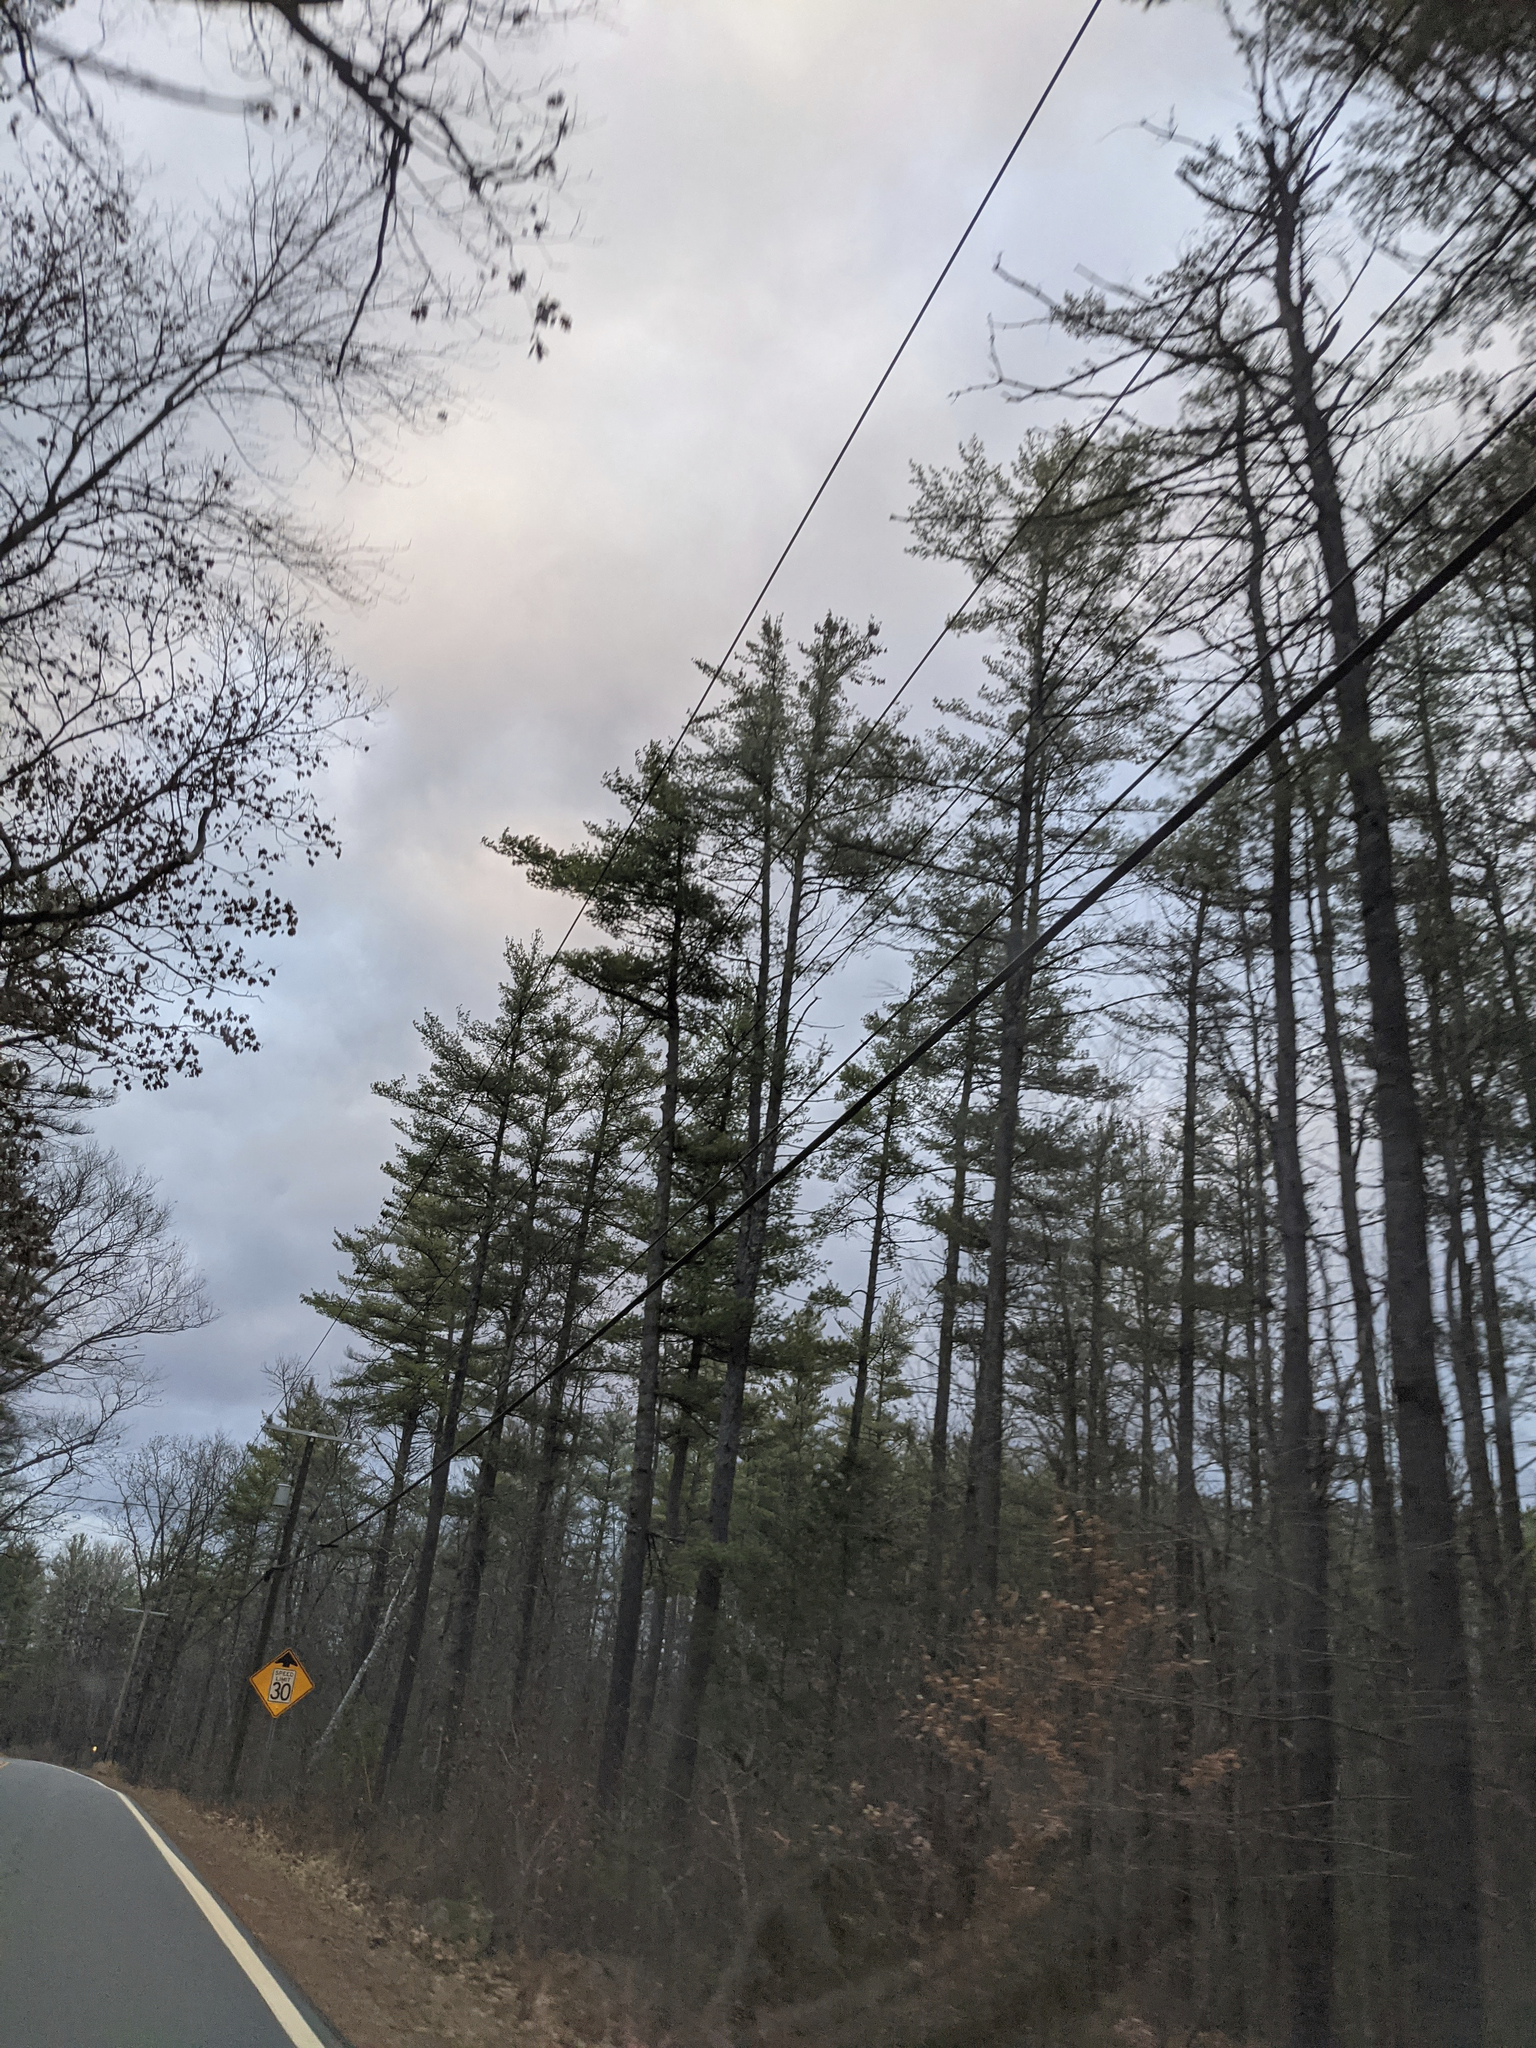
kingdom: Plantae
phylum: Tracheophyta
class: Pinopsida
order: Pinales
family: Pinaceae
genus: Pinus
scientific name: Pinus strobus
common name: Weymouth pine
